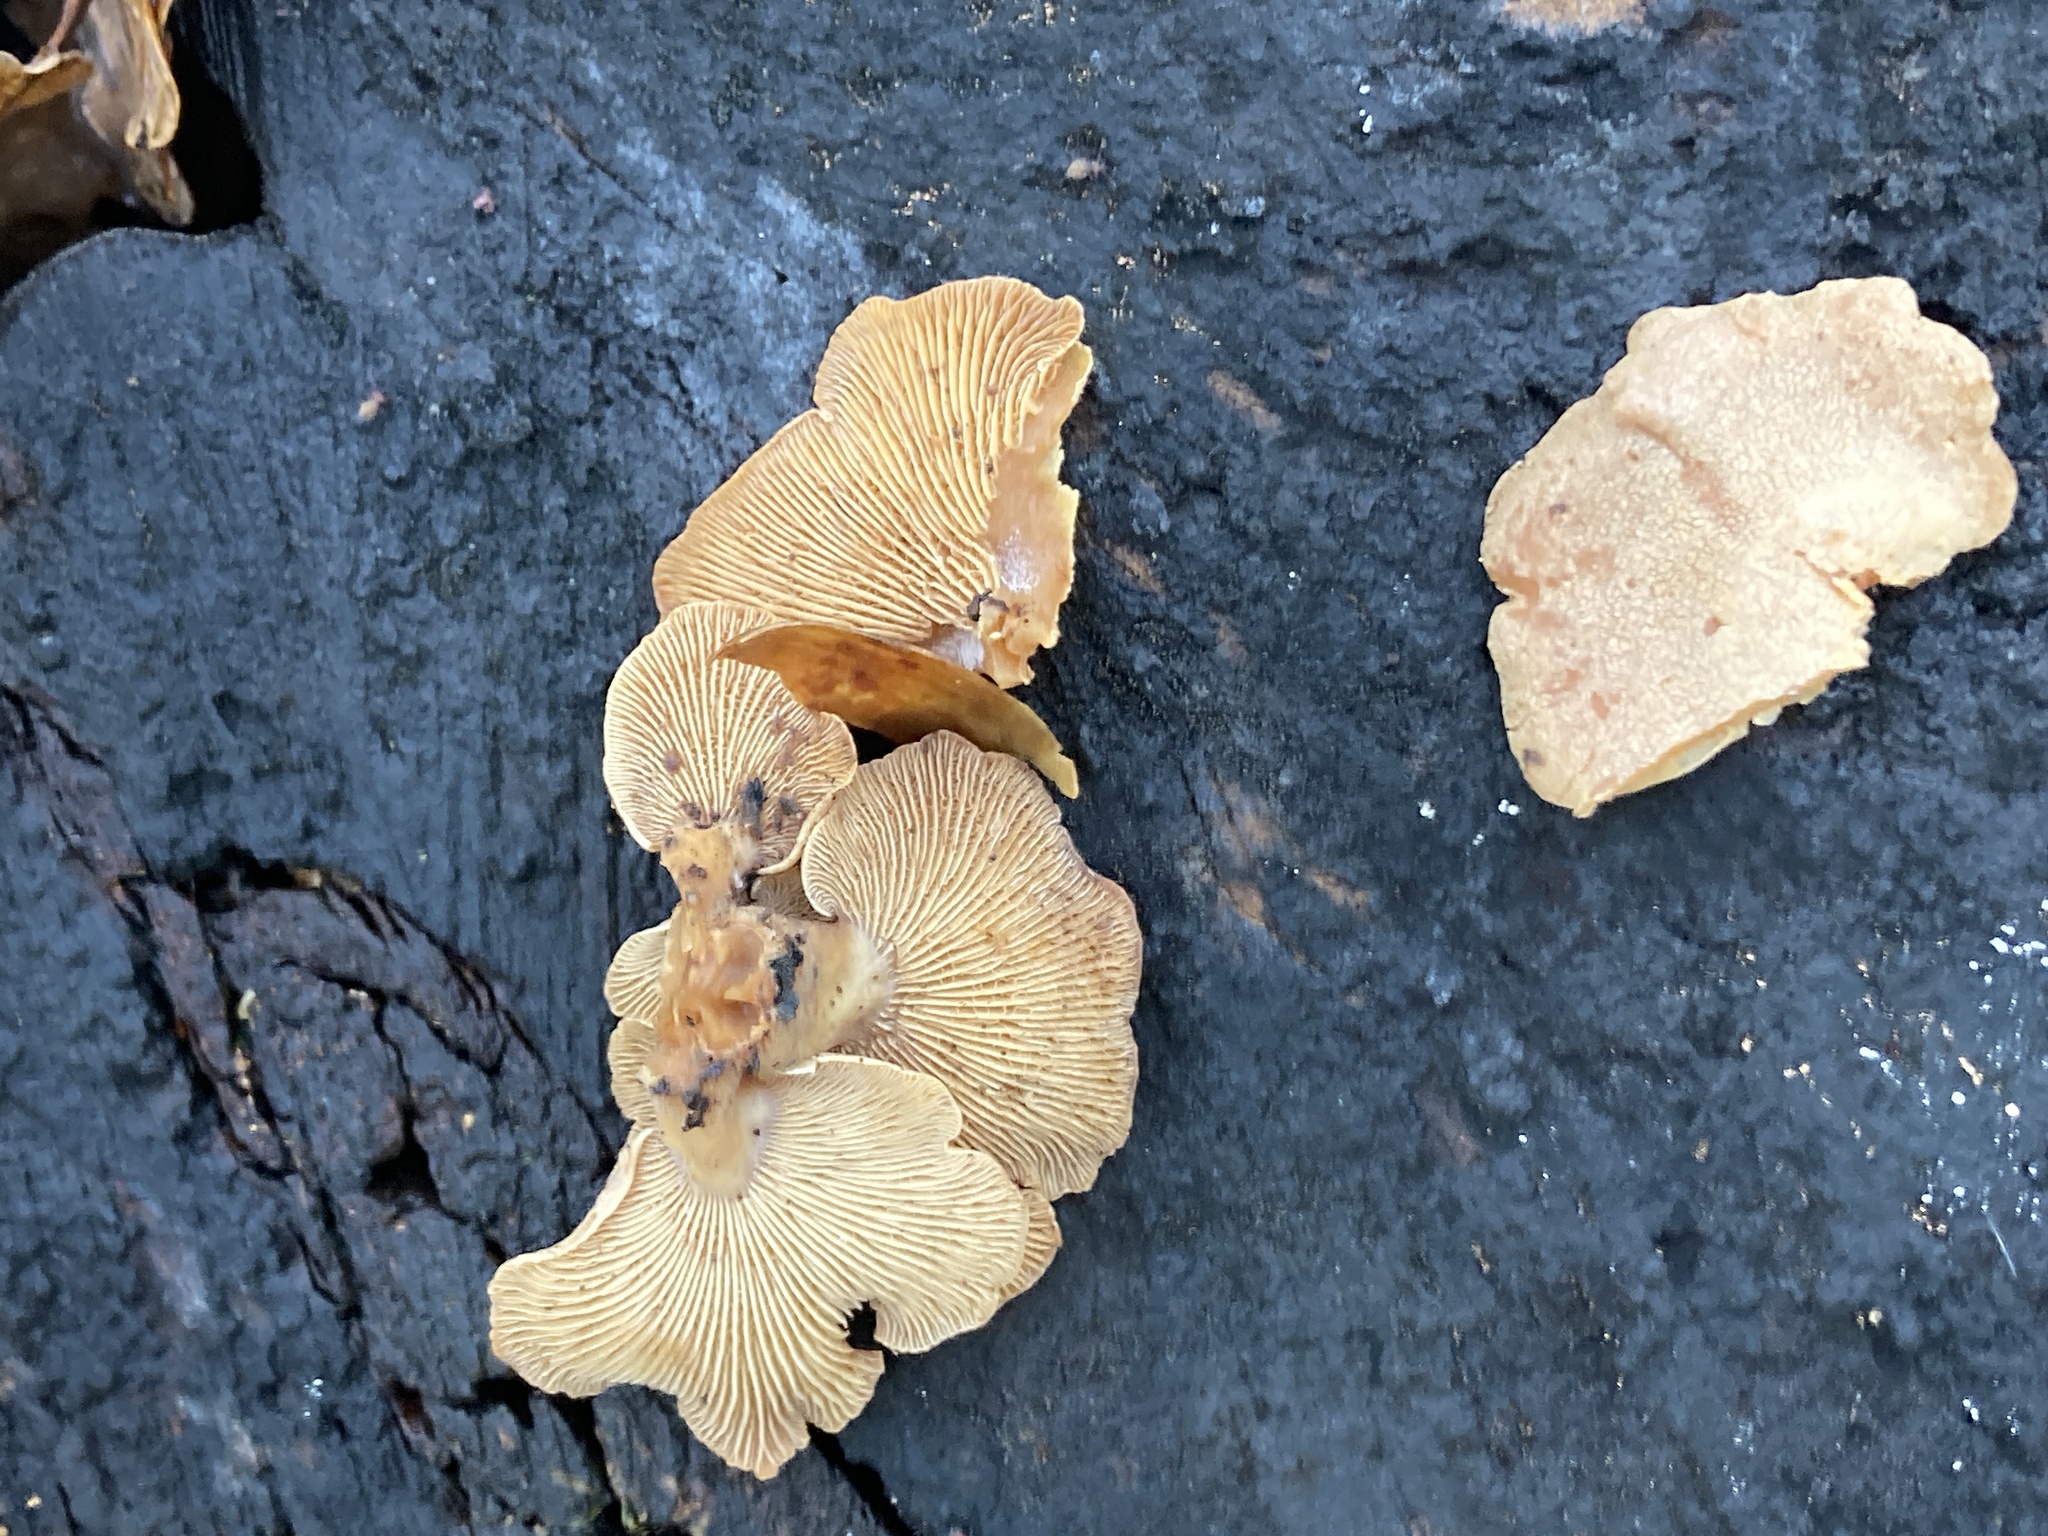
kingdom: Fungi
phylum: Basidiomycota
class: Agaricomycetes
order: Agaricales
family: Mycenaceae
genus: Panellus
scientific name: Panellus stipticus
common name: Bitter oysterling
